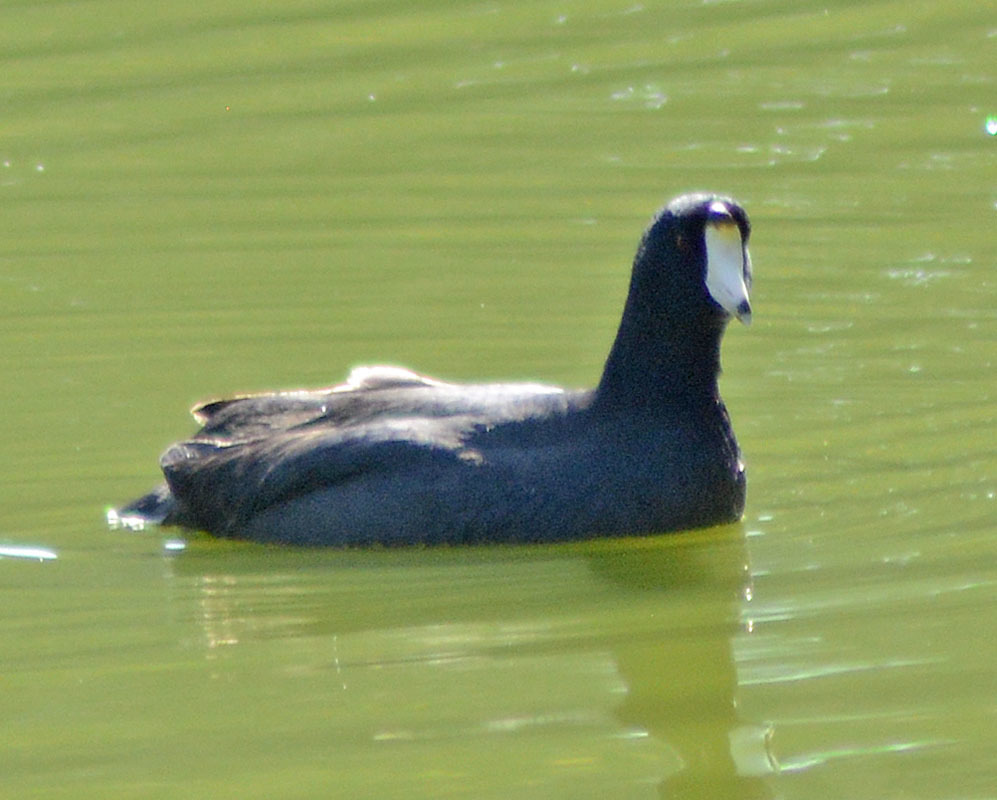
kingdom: Animalia
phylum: Chordata
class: Aves
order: Gruiformes
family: Rallidae
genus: Fulica
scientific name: Fulica americana
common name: American coot
